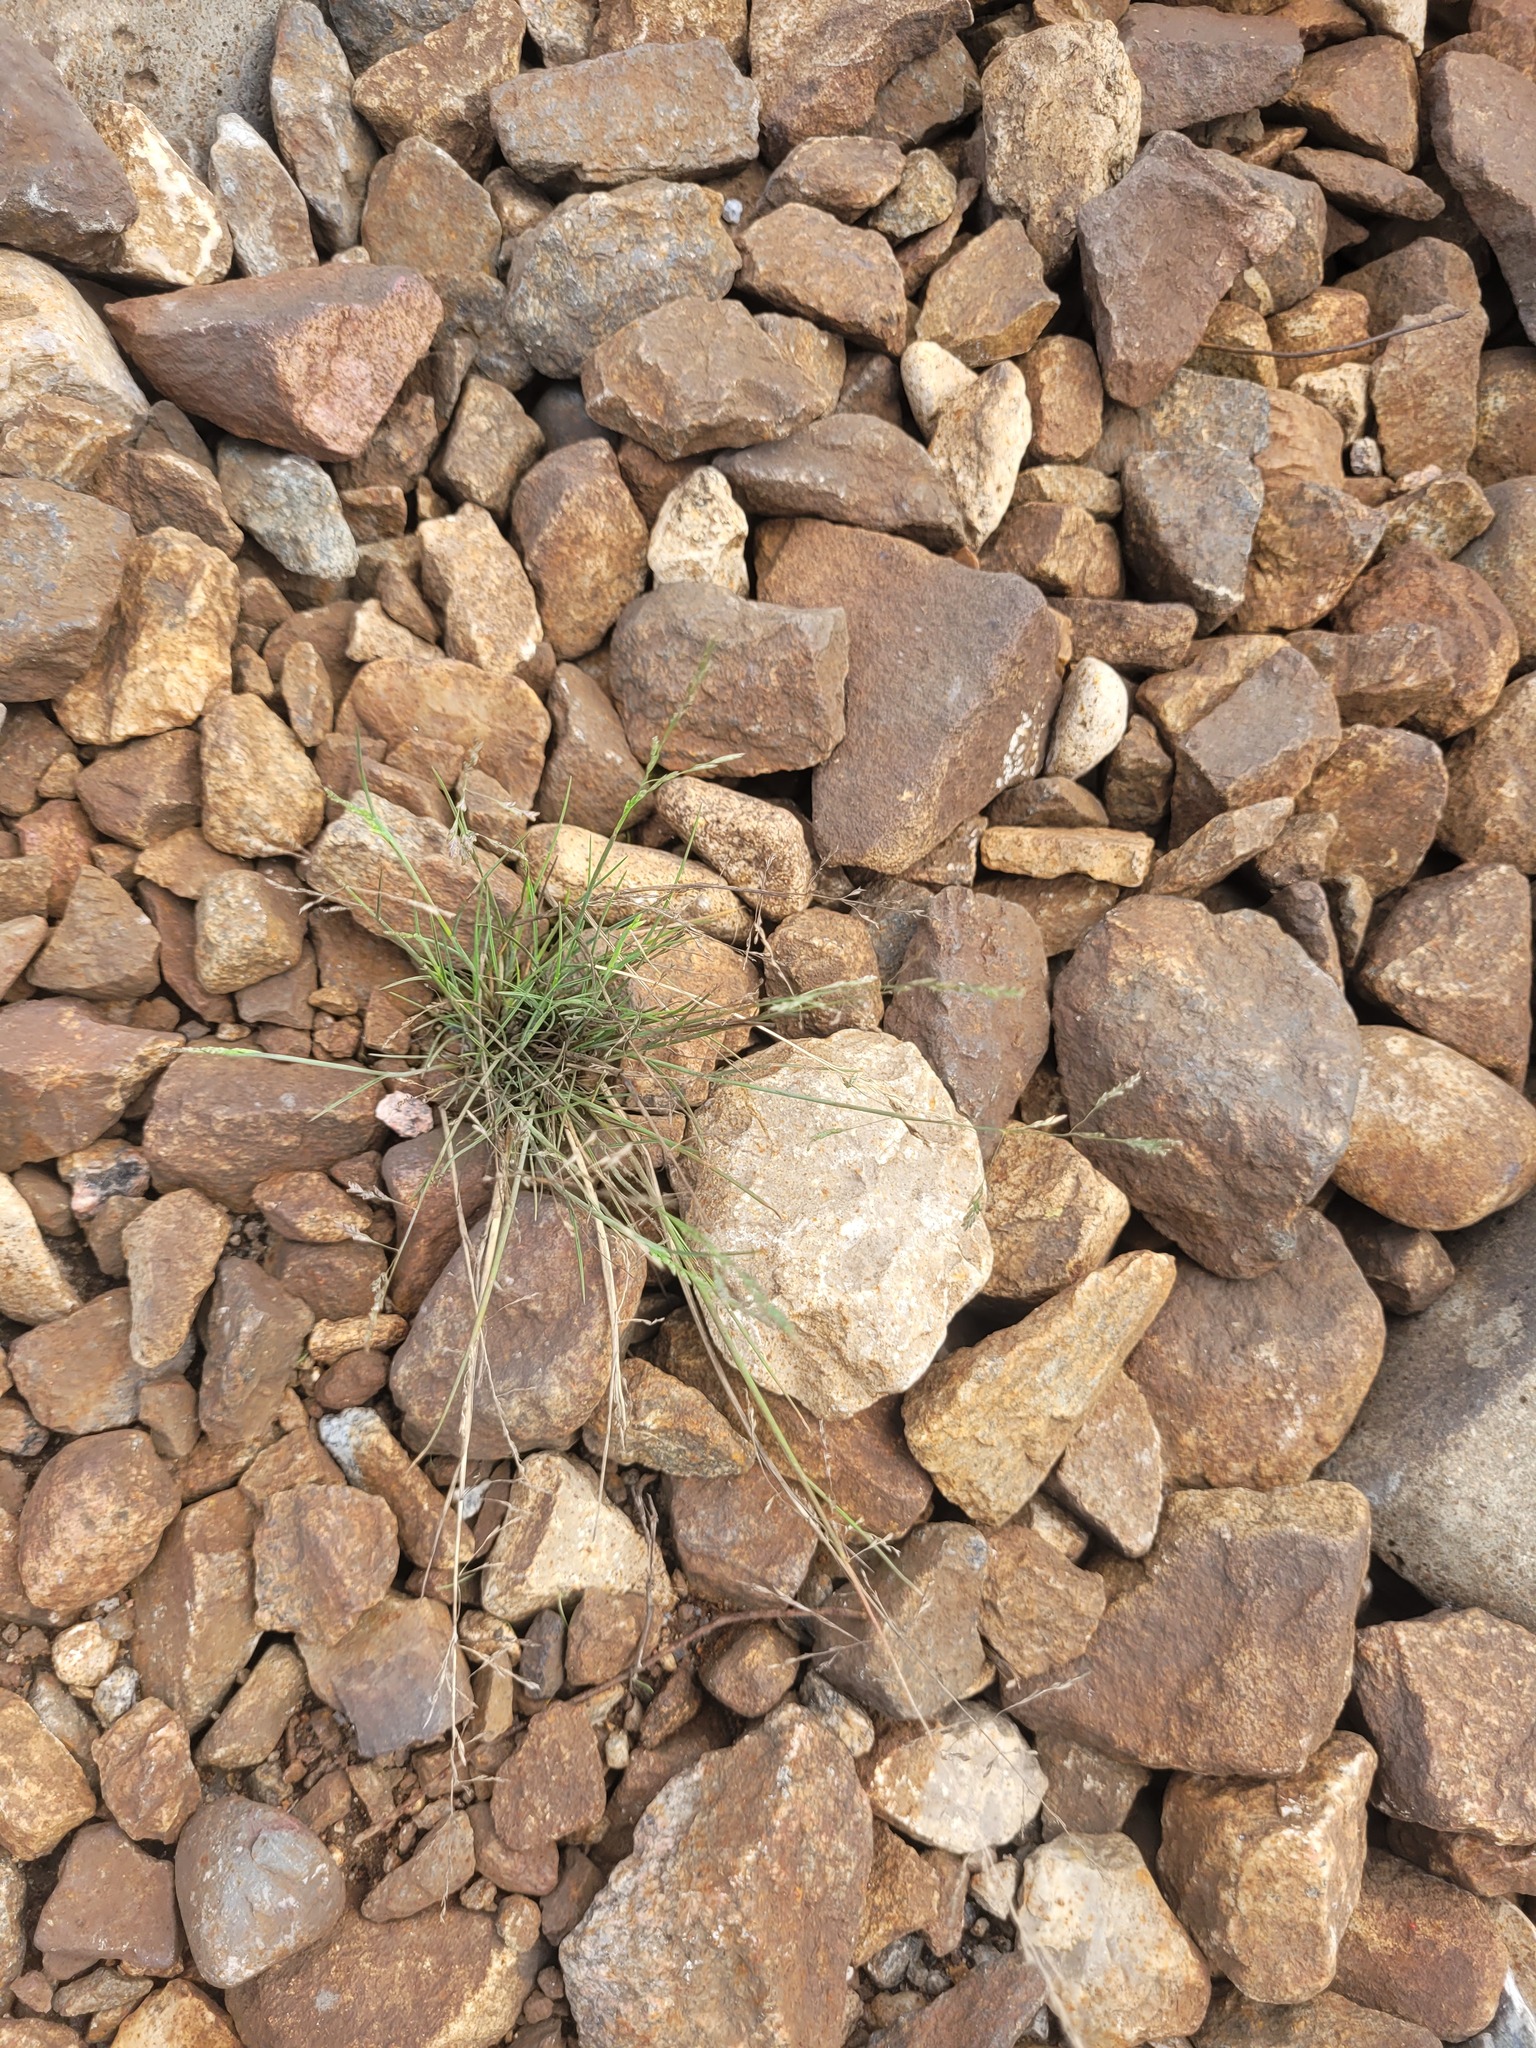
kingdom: Plantae
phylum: Tracheophyta
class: Liliopsida
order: Poales
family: Poaceae
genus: Puccinellia
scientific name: Puccinellia distans
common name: Weeping alkaligrass
